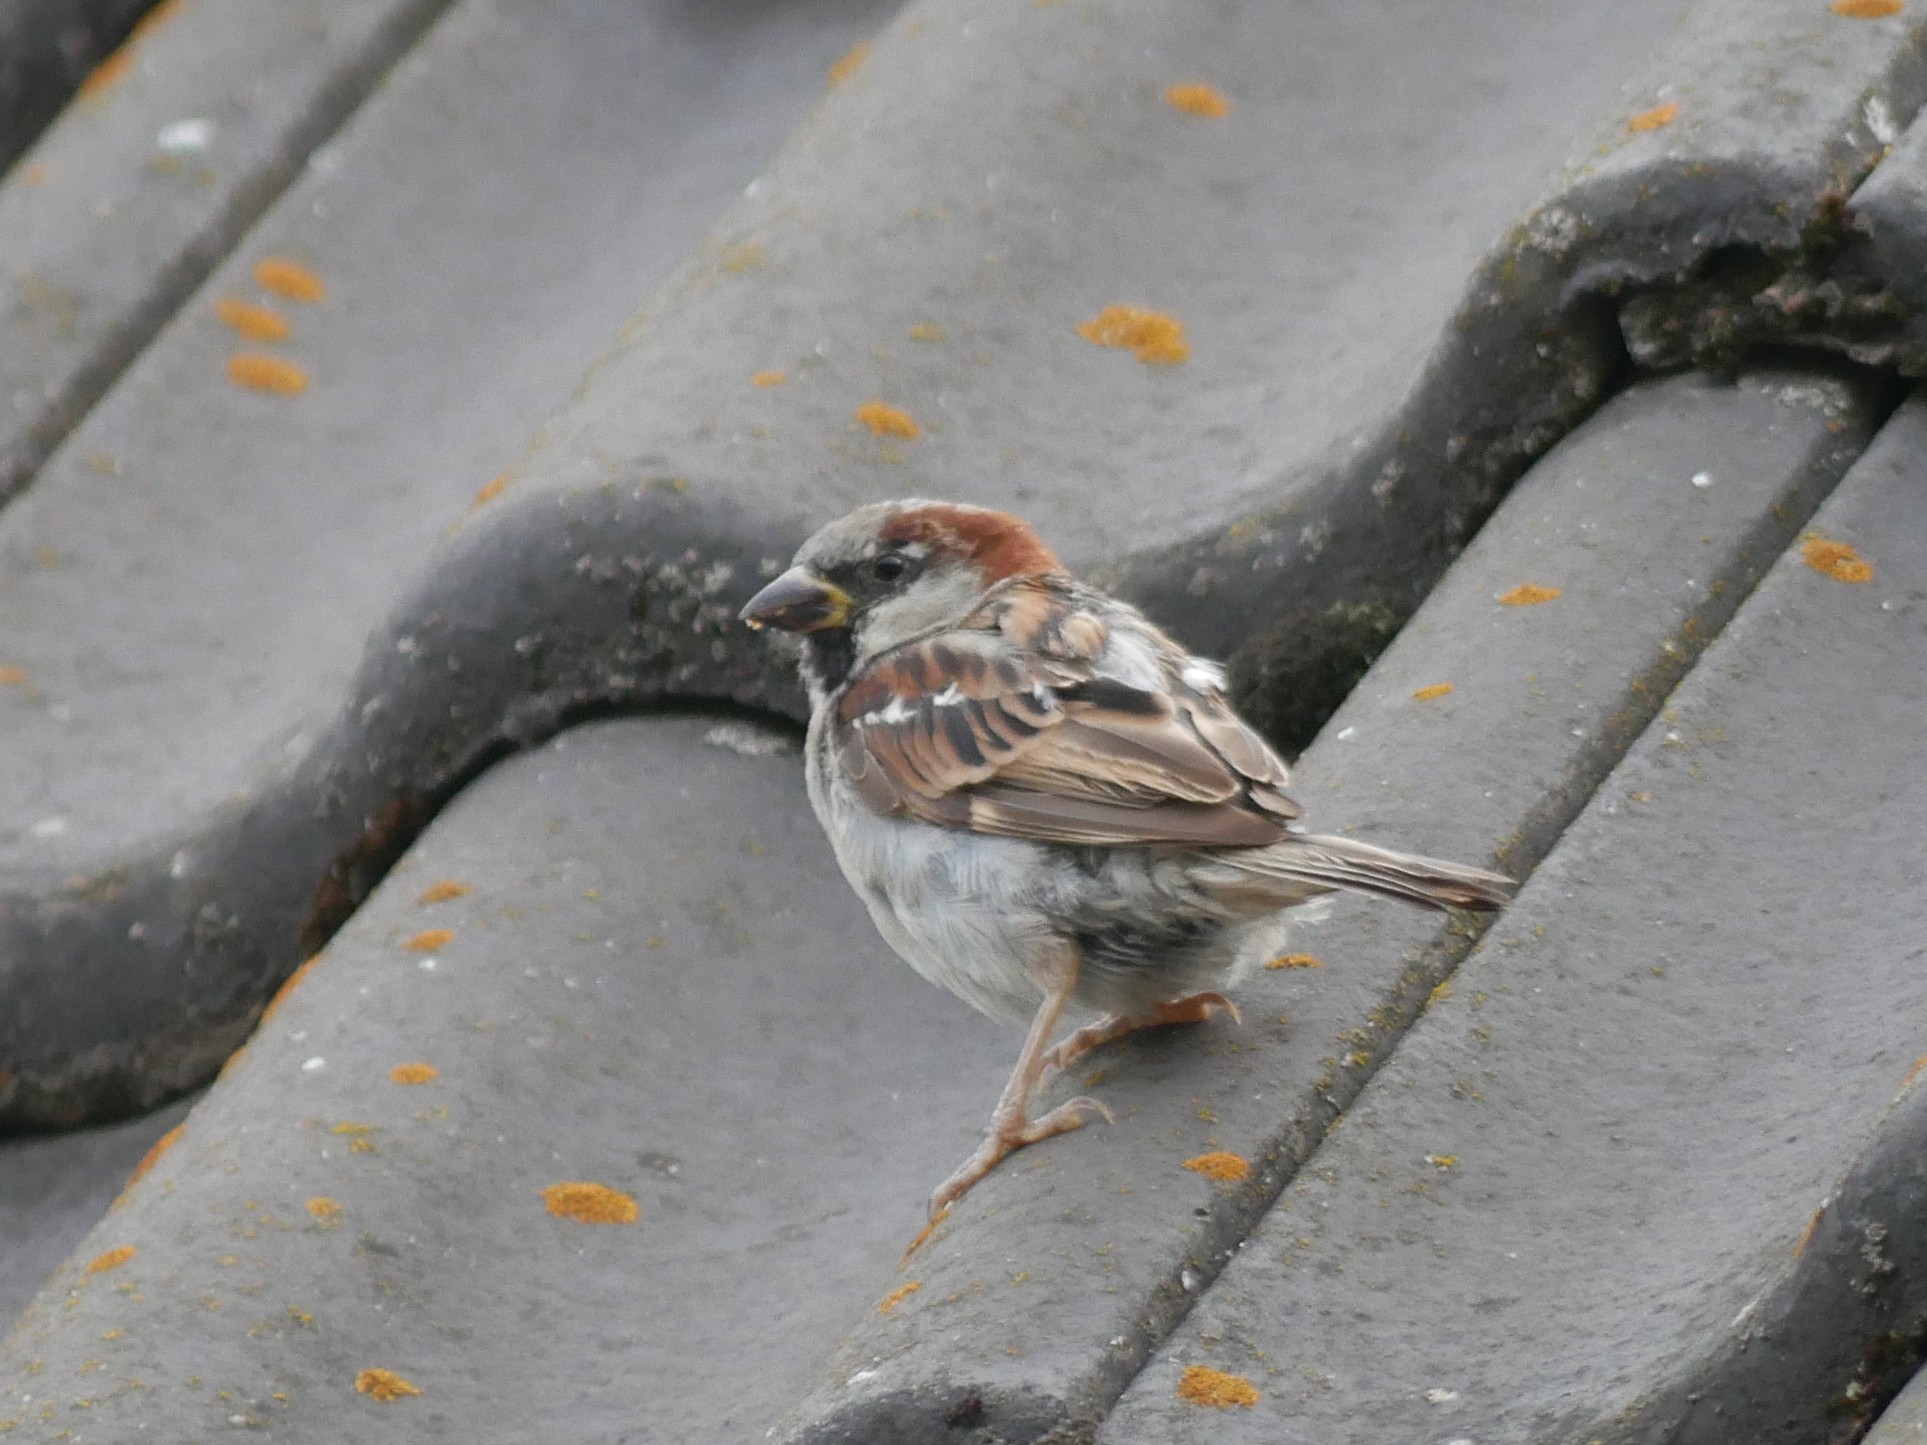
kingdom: Animalia
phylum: Chordata
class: Aves
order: Passeriformes
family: Passeridae
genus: Passer
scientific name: Passer domesticus
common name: House sparrow
